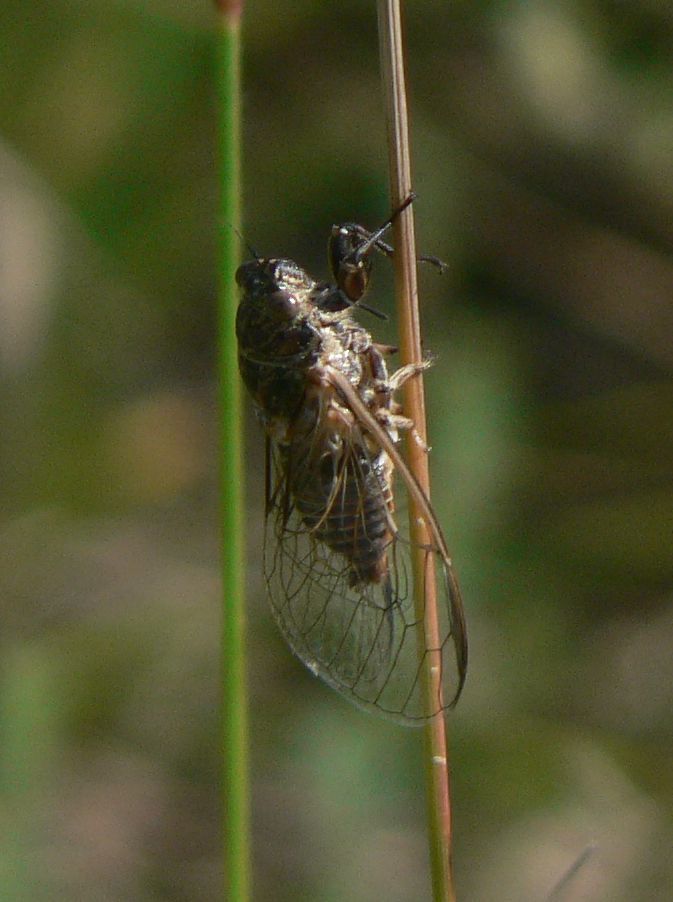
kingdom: Animalia
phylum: Arthropoda
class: Insecta
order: Hemiptera
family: Cicadidae
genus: Tettigettalna
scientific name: Tettigettalna argentata
